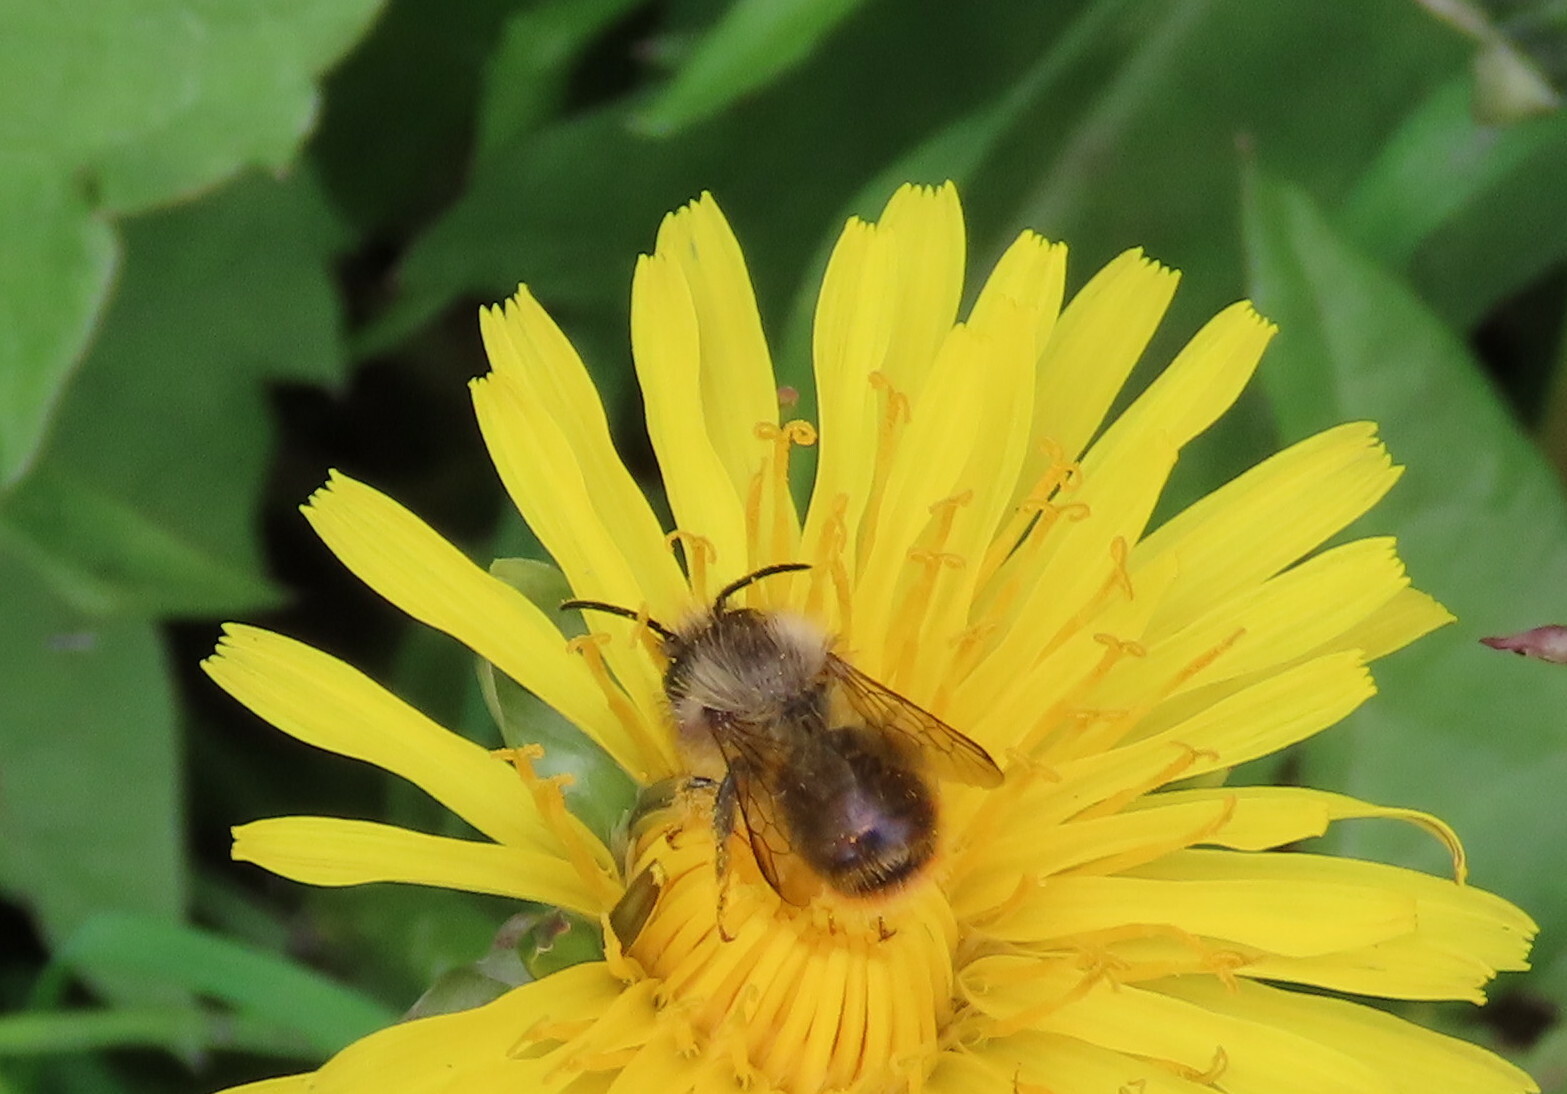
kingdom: Animalia
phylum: Arthropoda
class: Insecta
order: Hymenoptera
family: Megachilidae
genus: Osmia
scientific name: Osmia bicornis
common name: Red mason bee
